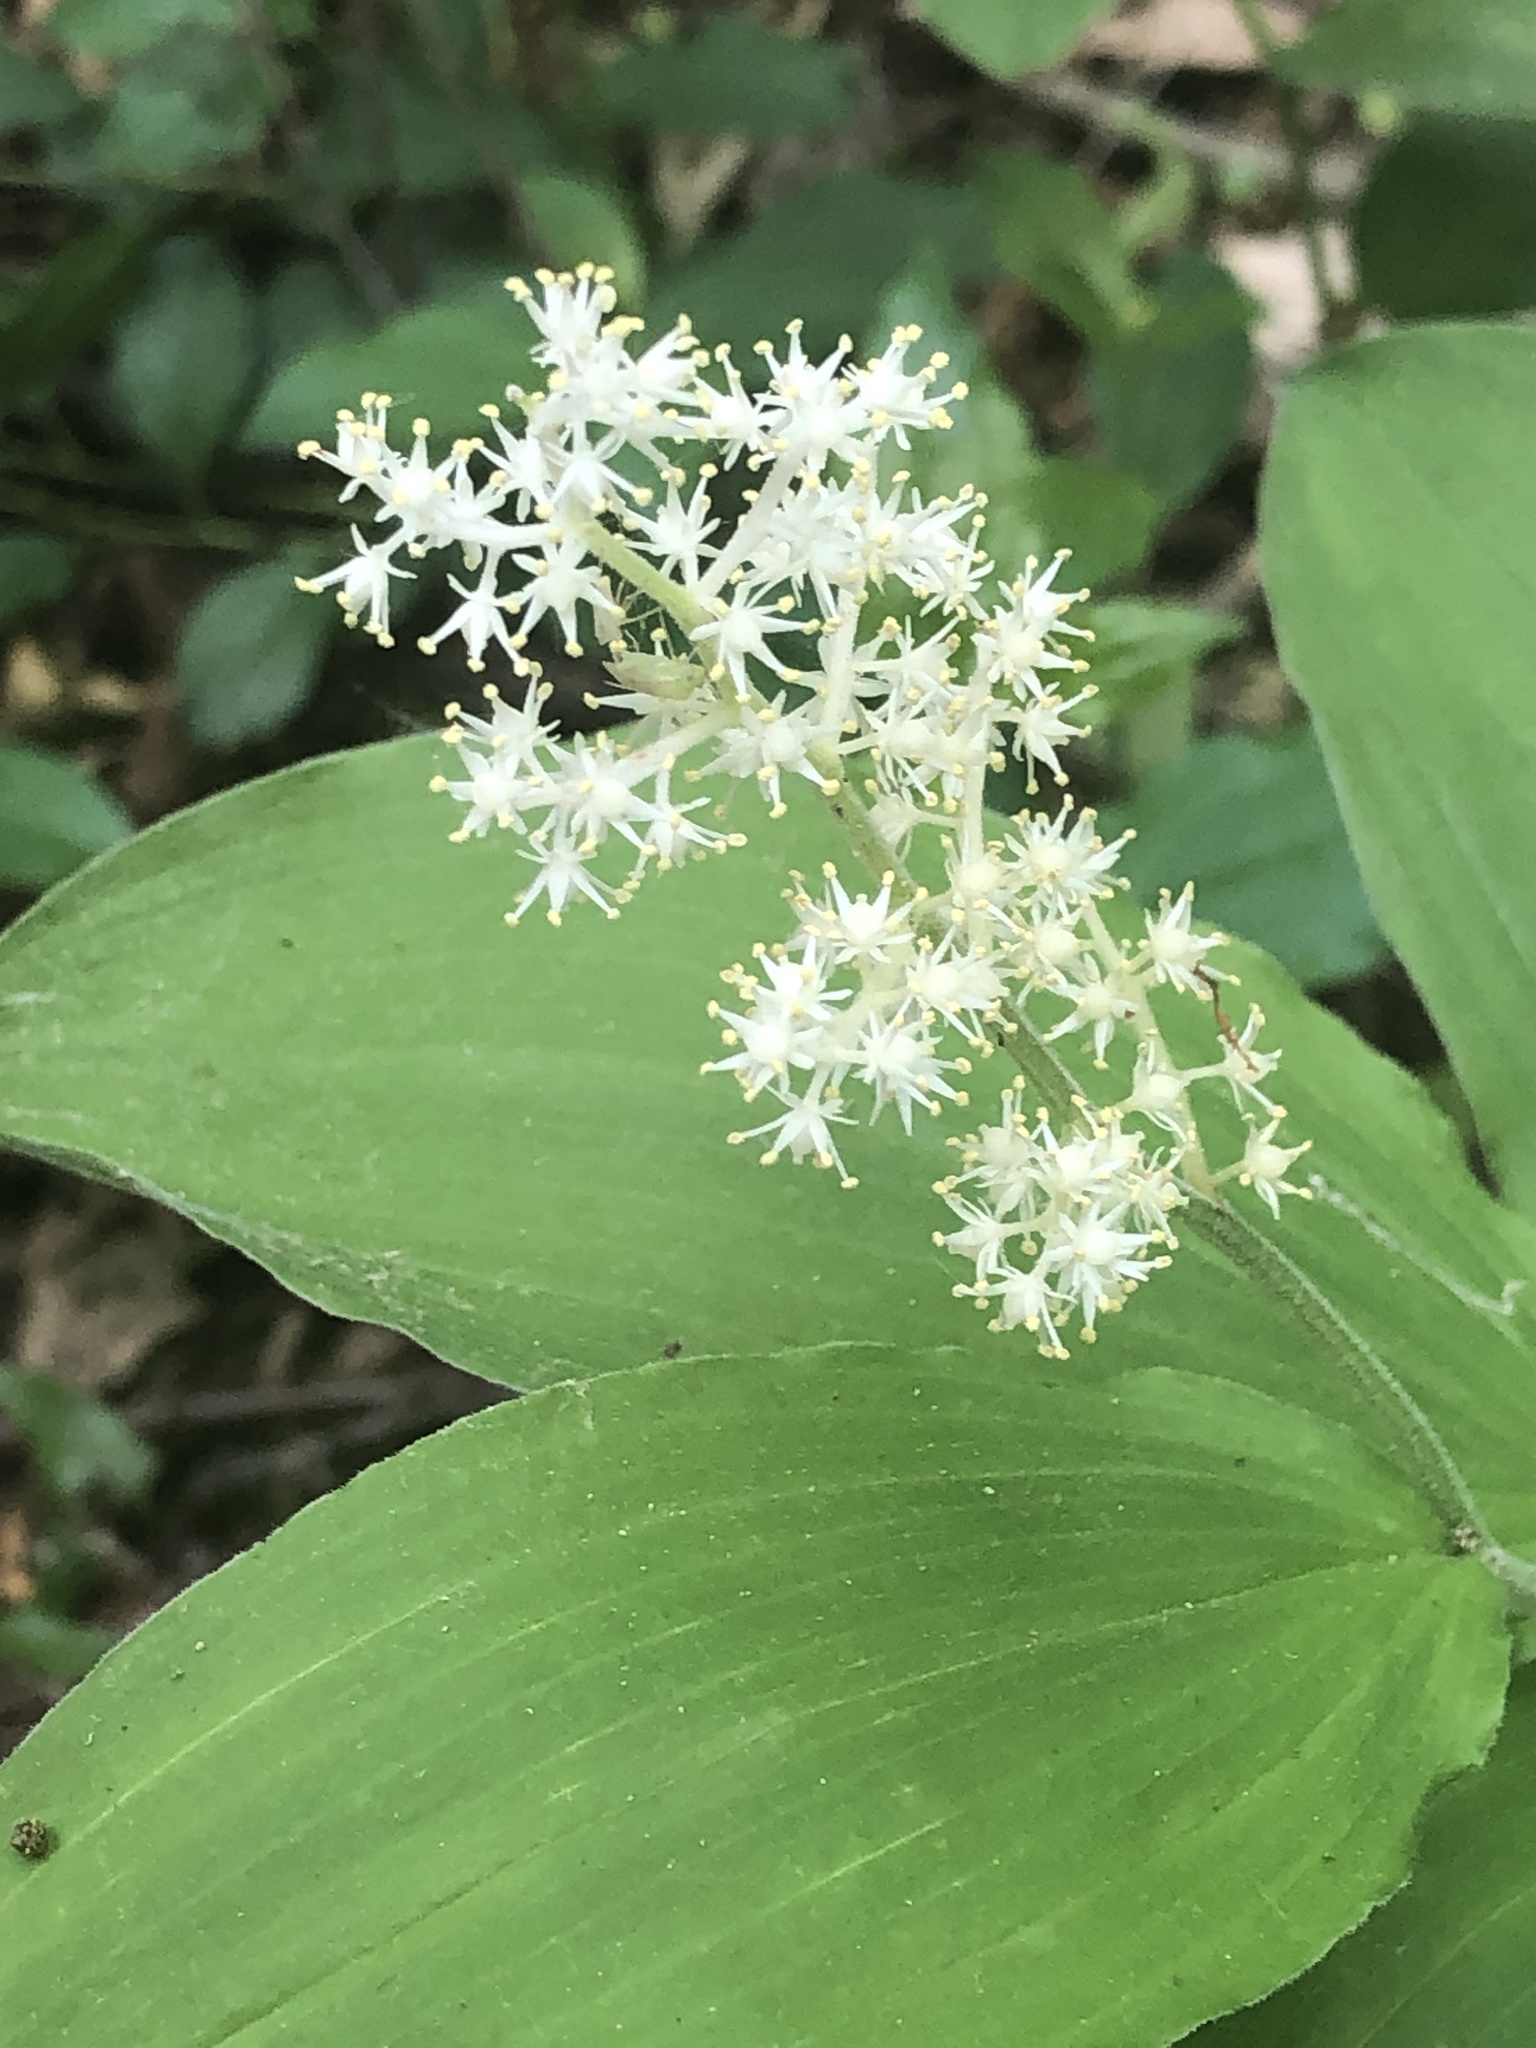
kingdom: Plantae
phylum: Tracheophyta
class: Liliopsida
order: Asparagales
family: Asparagaceae
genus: Maianthemum
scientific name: Maianthemum racemosum
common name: False spikenard
